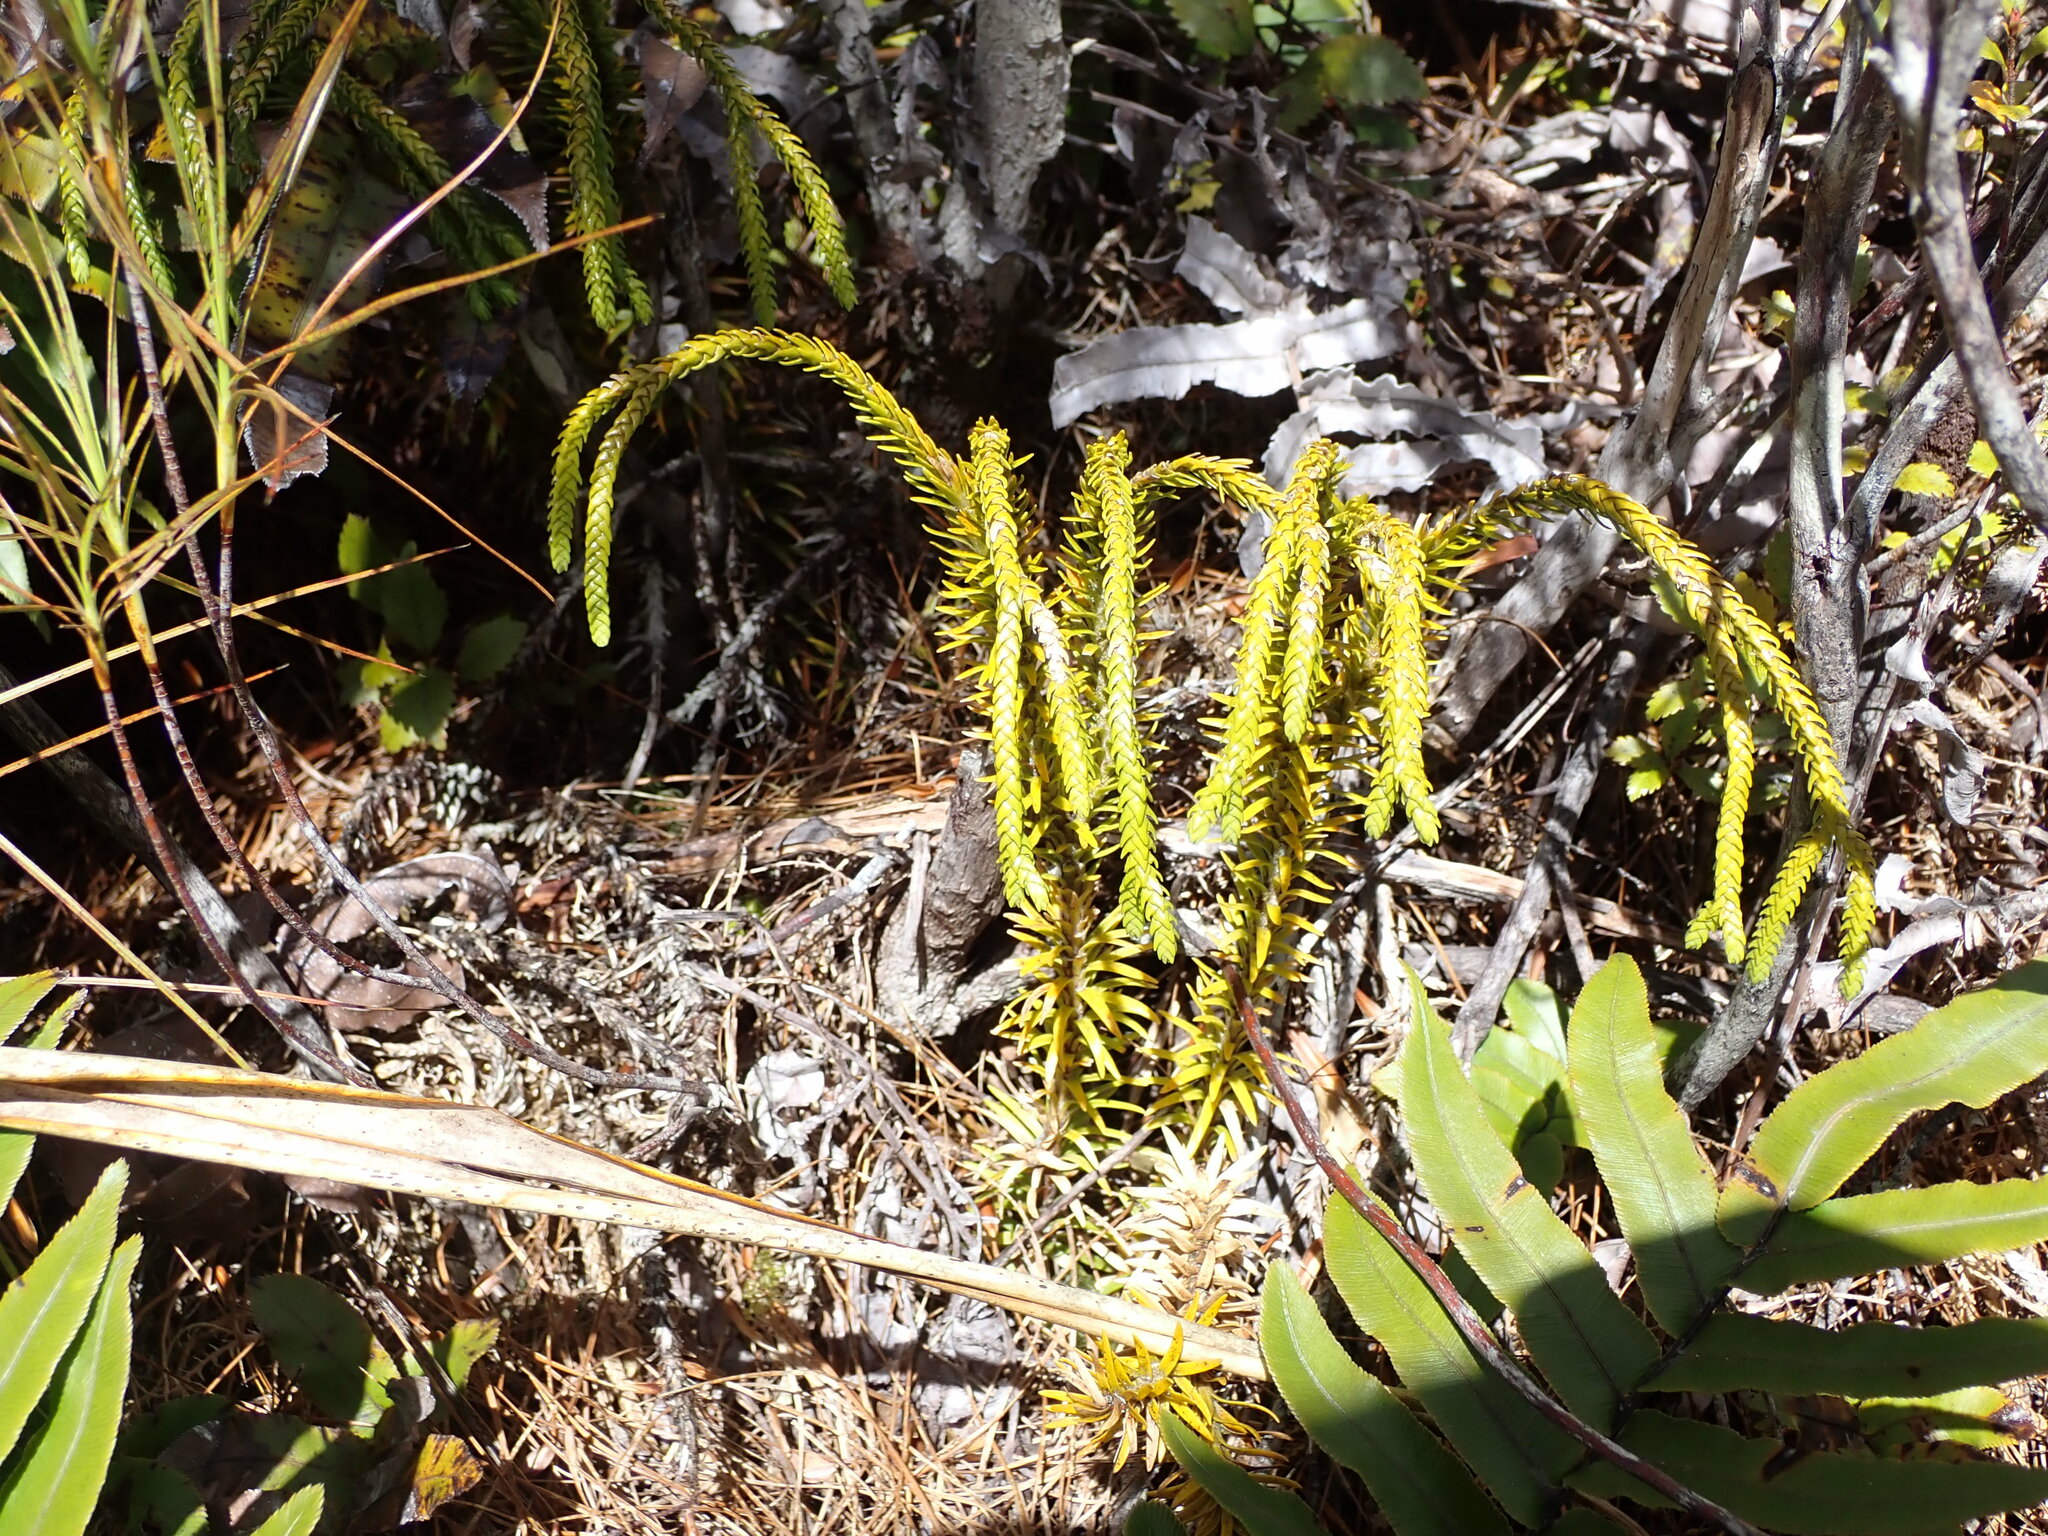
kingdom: Plantae
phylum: Tracheophyta
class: Lycopodiopsida
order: Lycopodiales
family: Lycopodiaceae
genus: Phlegmariurus
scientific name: Phlegmariurus varius
